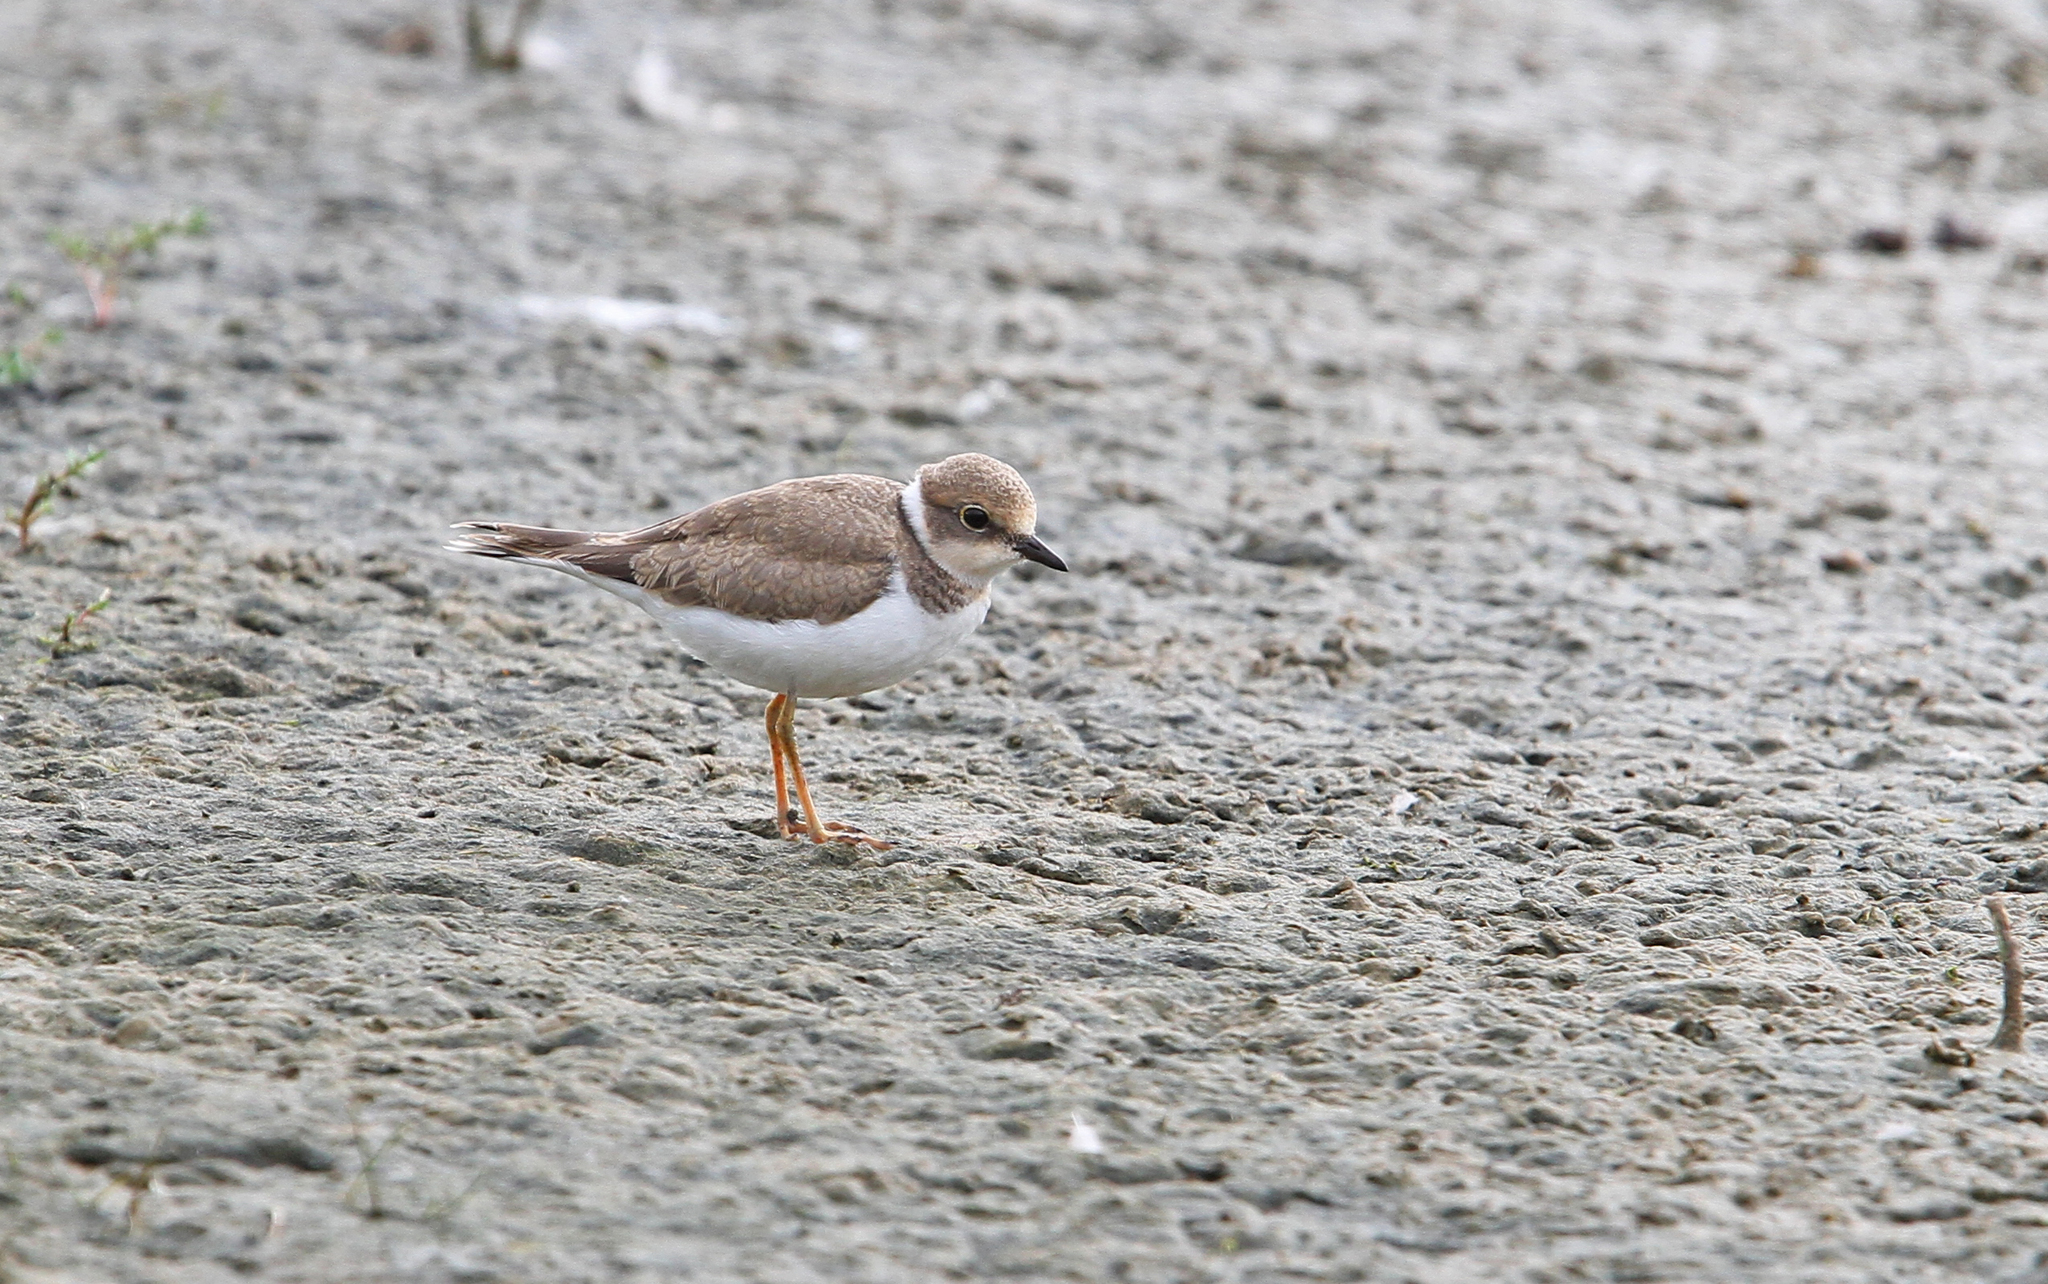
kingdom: Animalia
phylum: Chordata
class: Aves
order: Charadriiformes
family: Charadriidae
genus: Charadrius
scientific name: Charadrius dubius
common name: Little ringed plover
